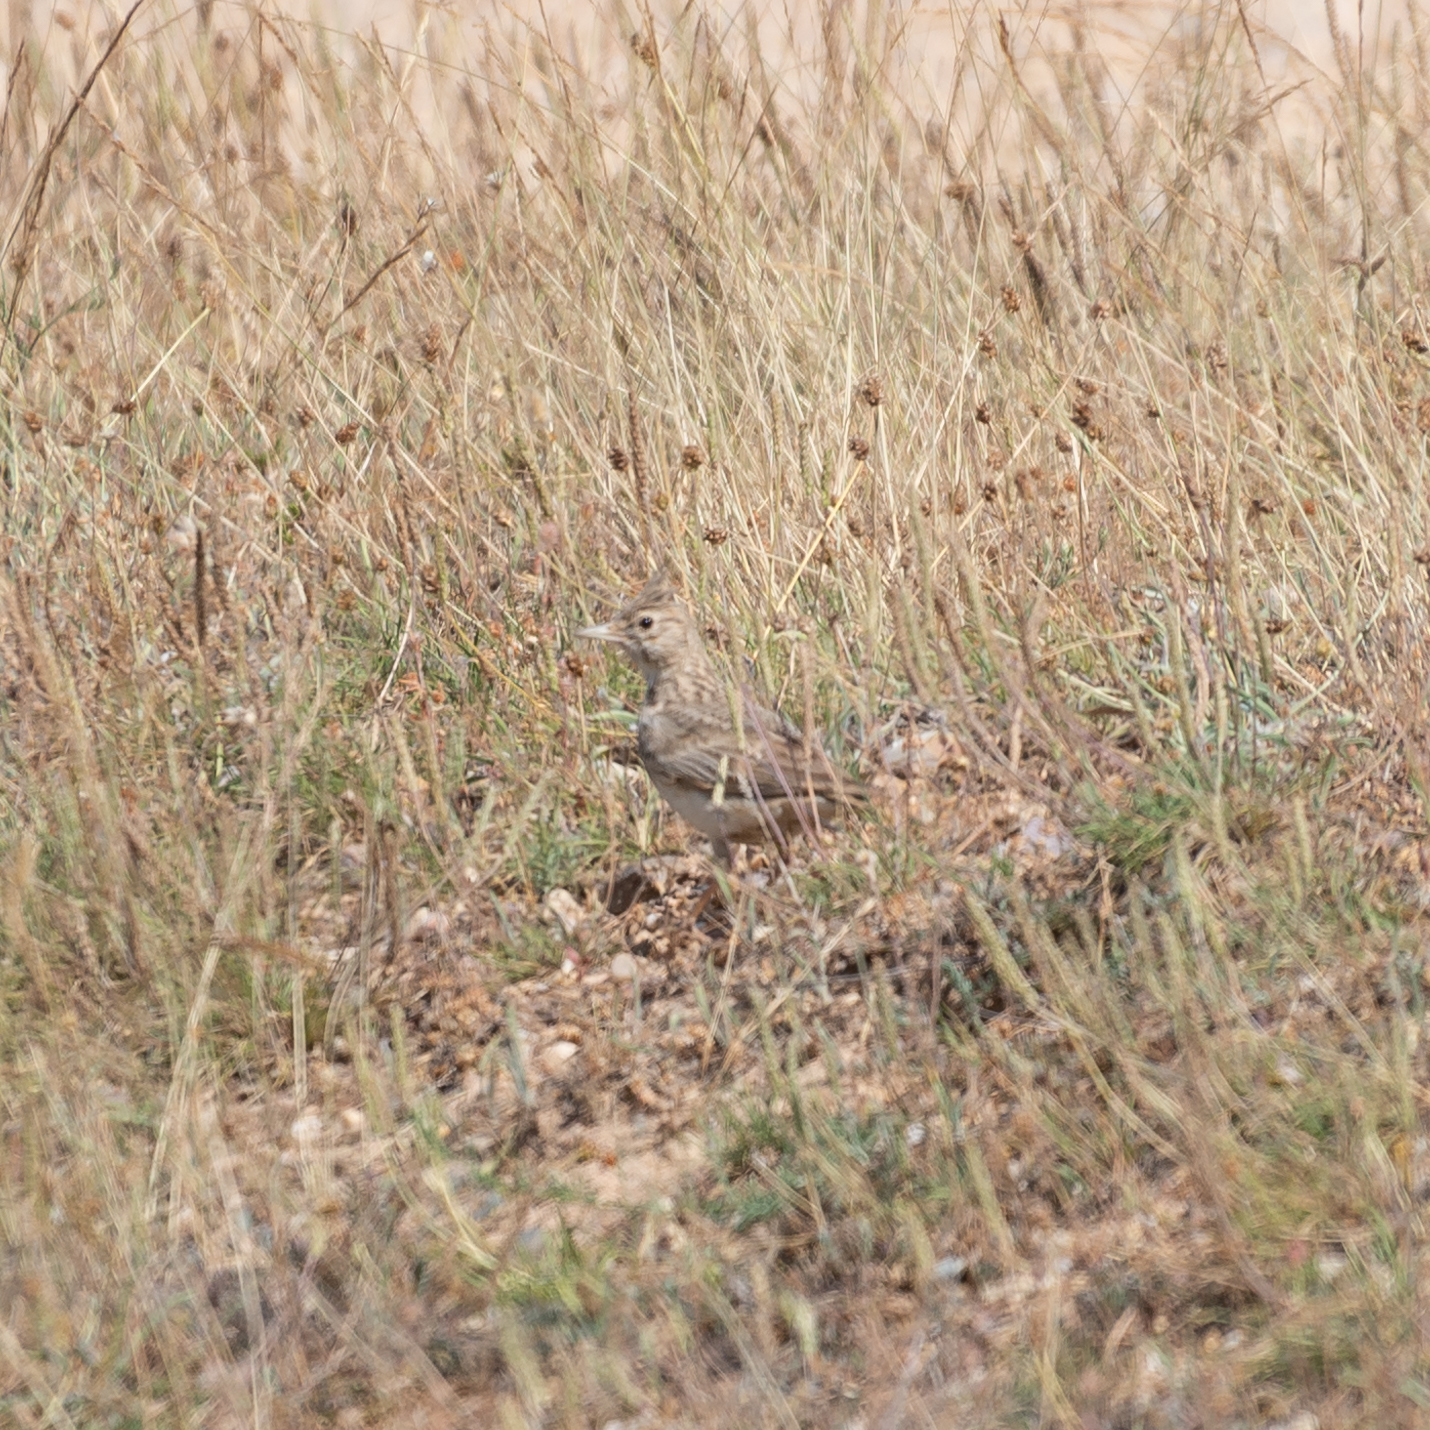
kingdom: Animalia
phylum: Chordata
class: Aves
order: Passeriformes
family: Alaudidae
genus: Galerida
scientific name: Galerida cristata
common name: Crested lark
